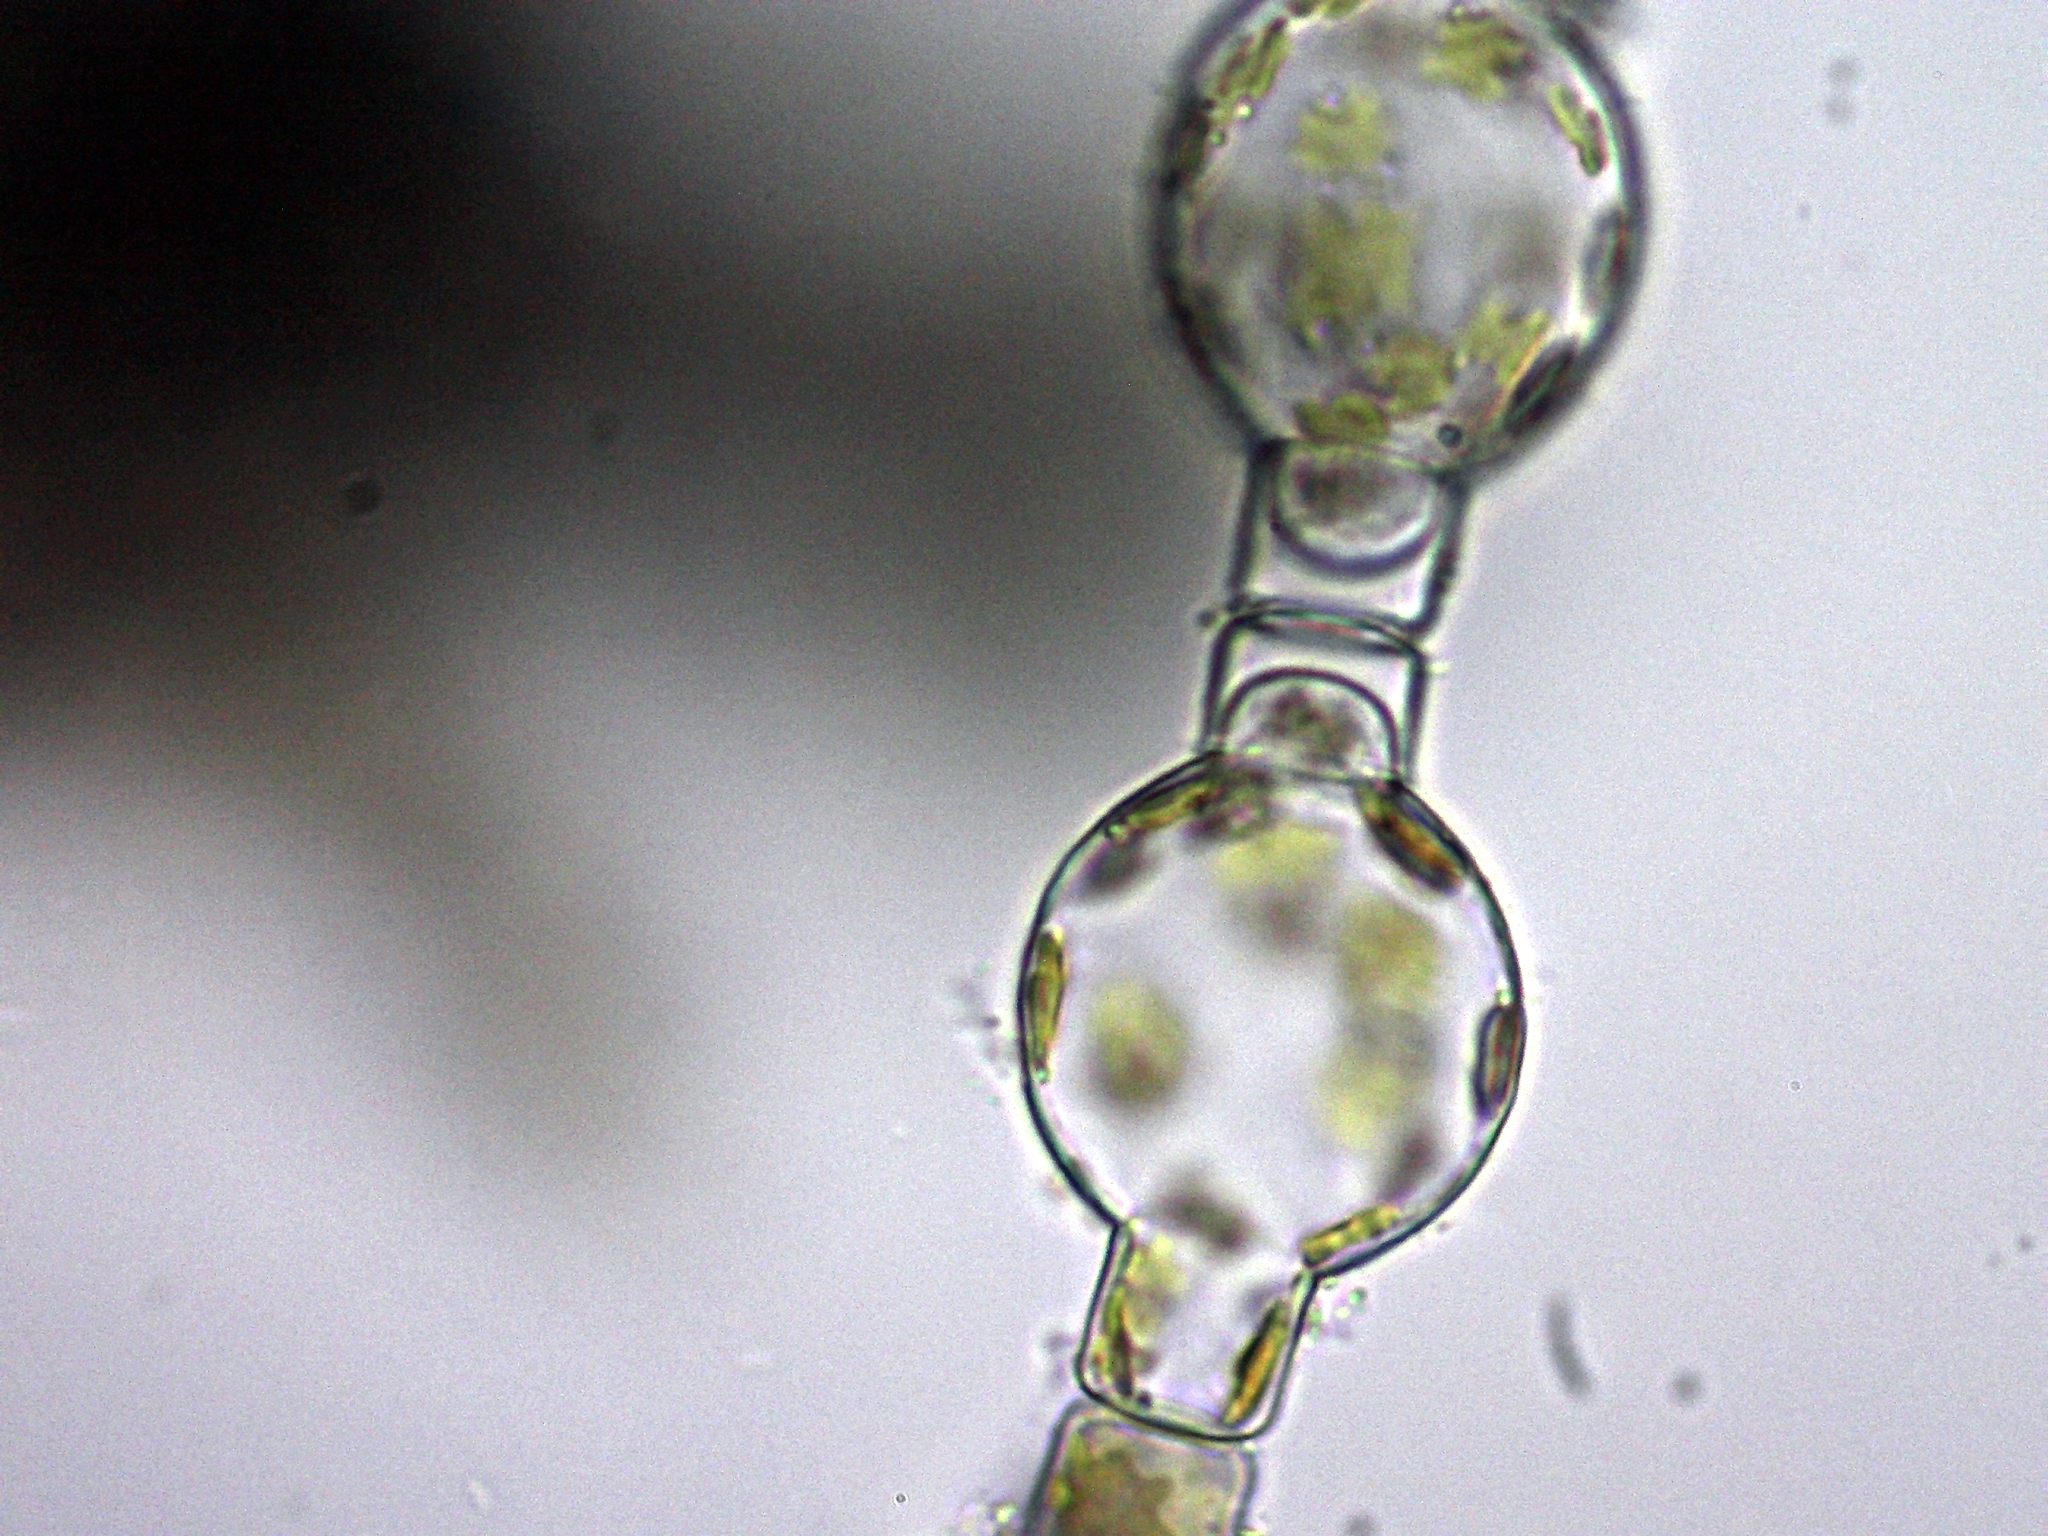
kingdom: Chromista
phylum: Ochrophyta
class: Bacillariophyceae
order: Melosirales
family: Melosiraceae
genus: Melosira
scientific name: Melosira varians
